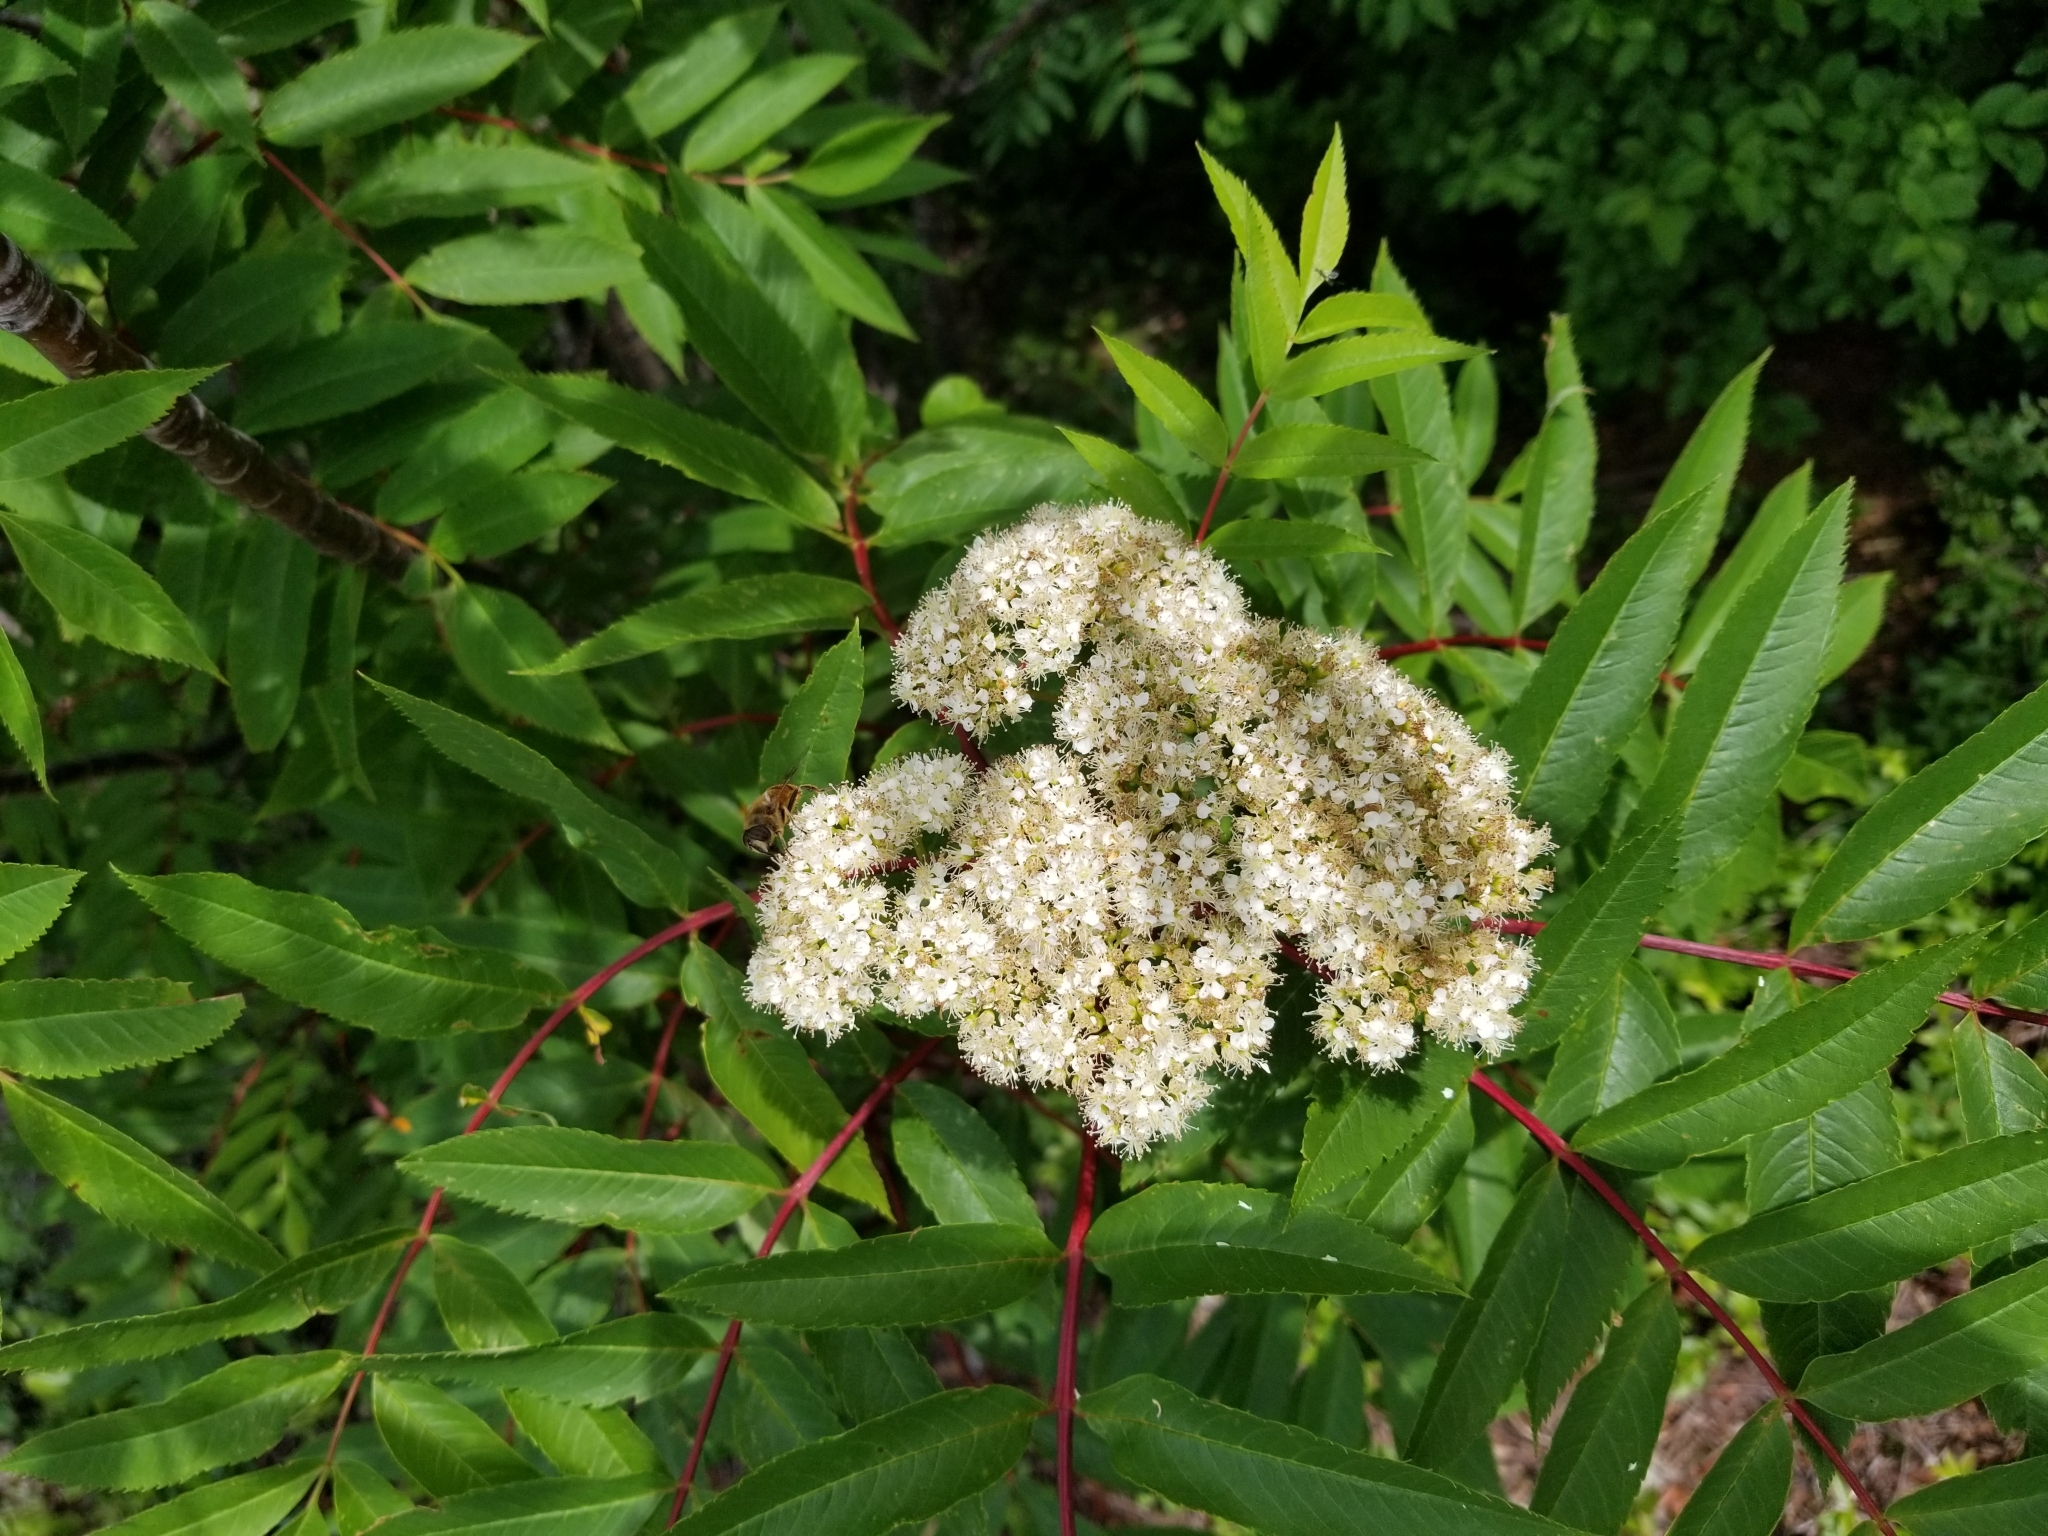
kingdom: Plantae
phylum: Tracheophyta
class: Magnoliopsida
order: Rosales
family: Rosaceae
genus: Sorbus
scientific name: Sorbus americana
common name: American mountain-ash
